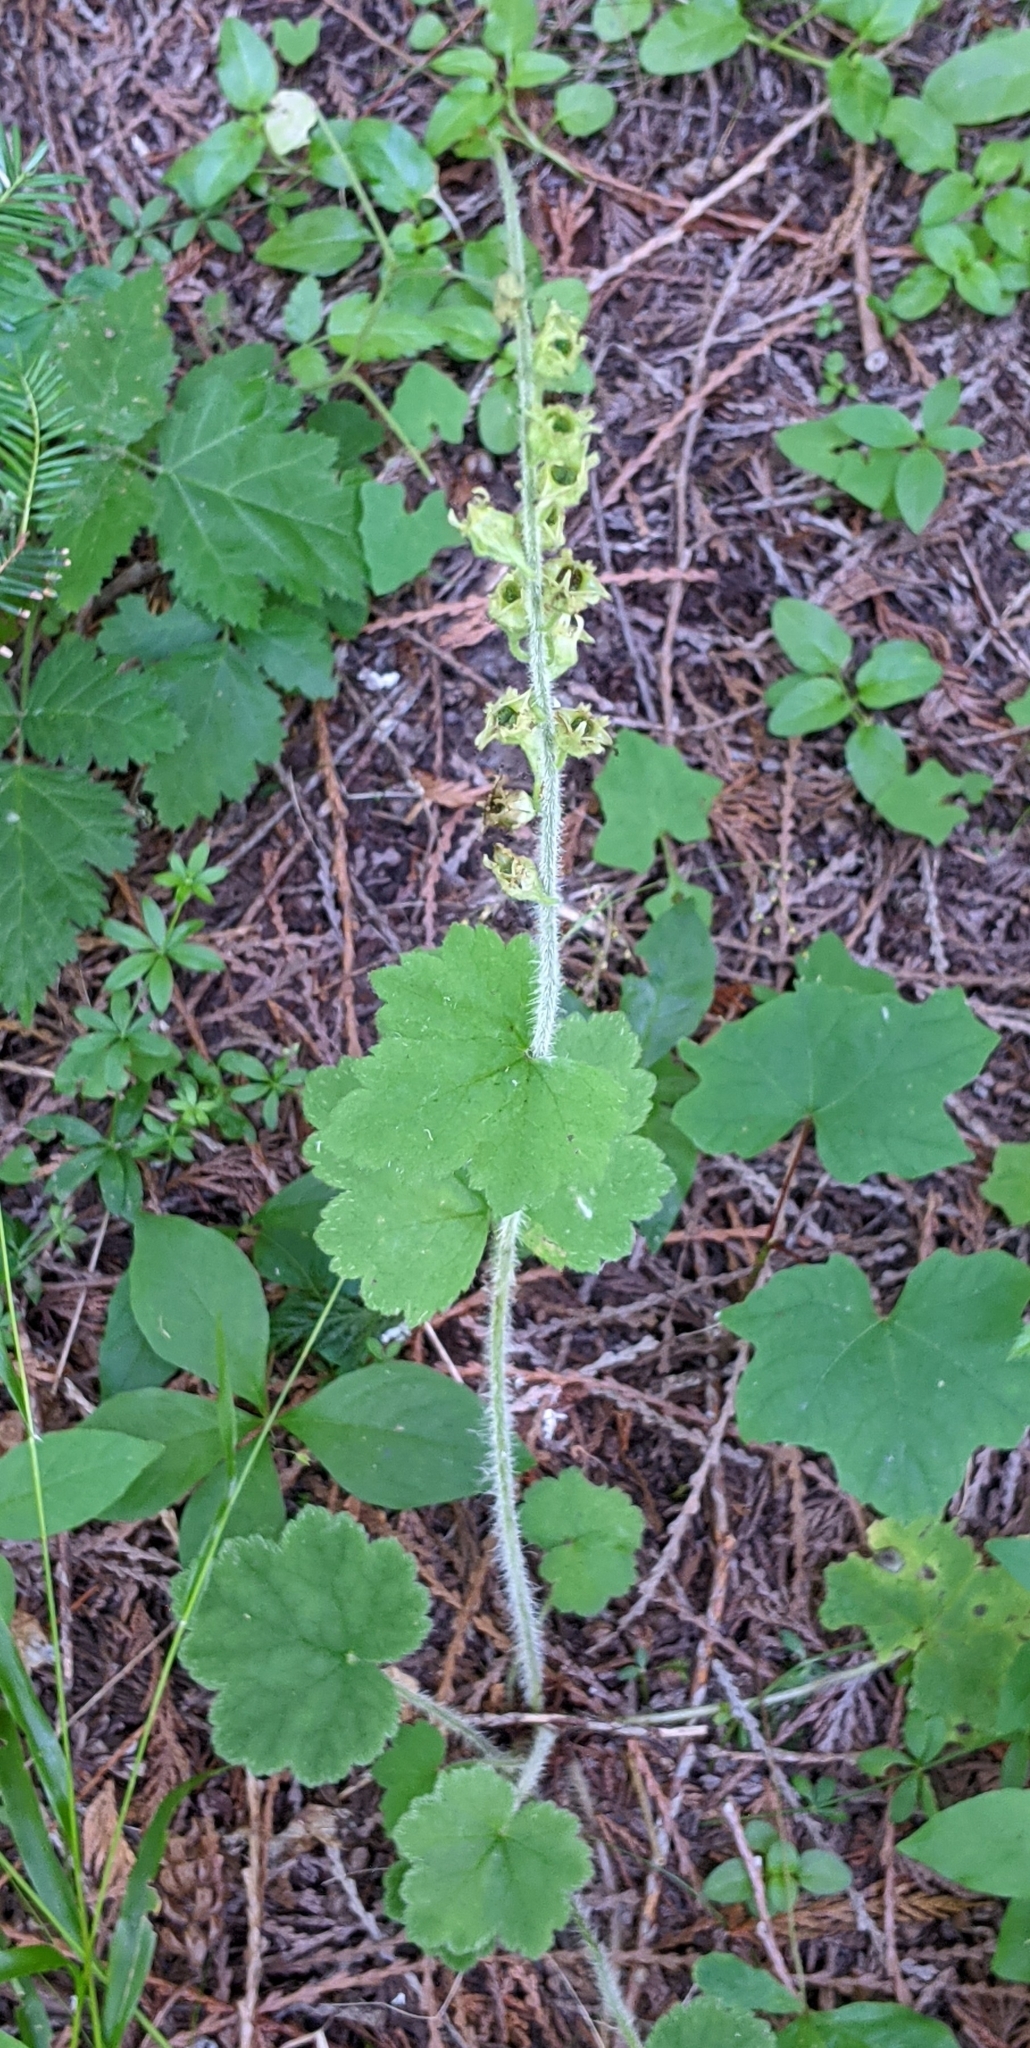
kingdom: Plantae
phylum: Tracheophyta
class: Magnoliopsida
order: Saxifragales
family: Saxifragaceae
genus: Tellima
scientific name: Tellima grandiflora
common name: Fringecups
